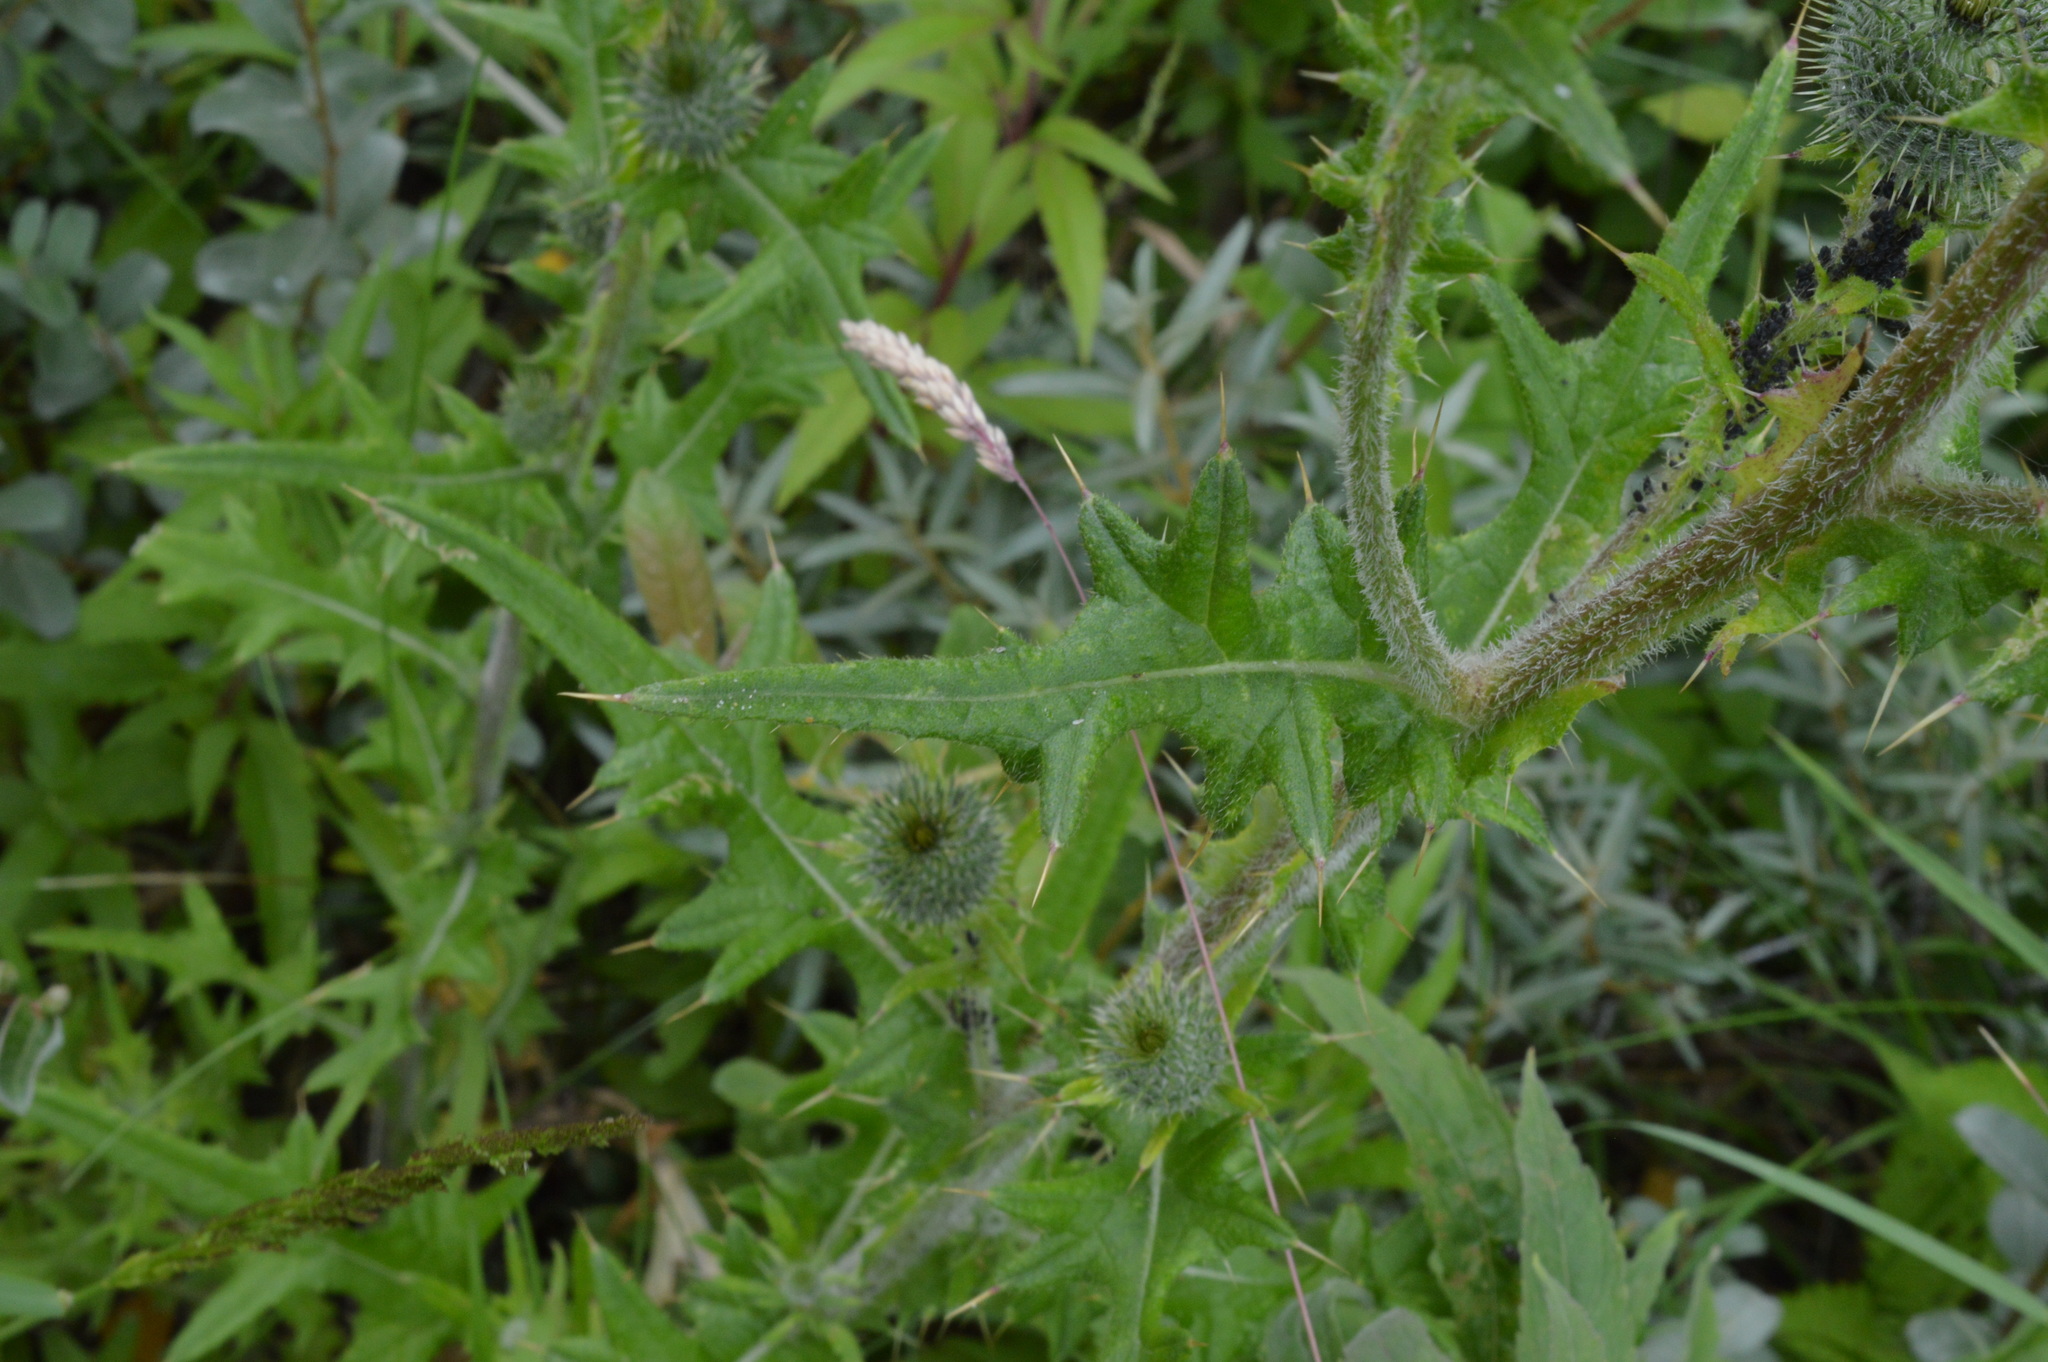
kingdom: Plantae
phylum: Tracheophyta
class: Magnoliopsida
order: Asterales
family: Asteraceae
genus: Cirsium
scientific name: Cirsium vulgare
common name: Bull thistle
